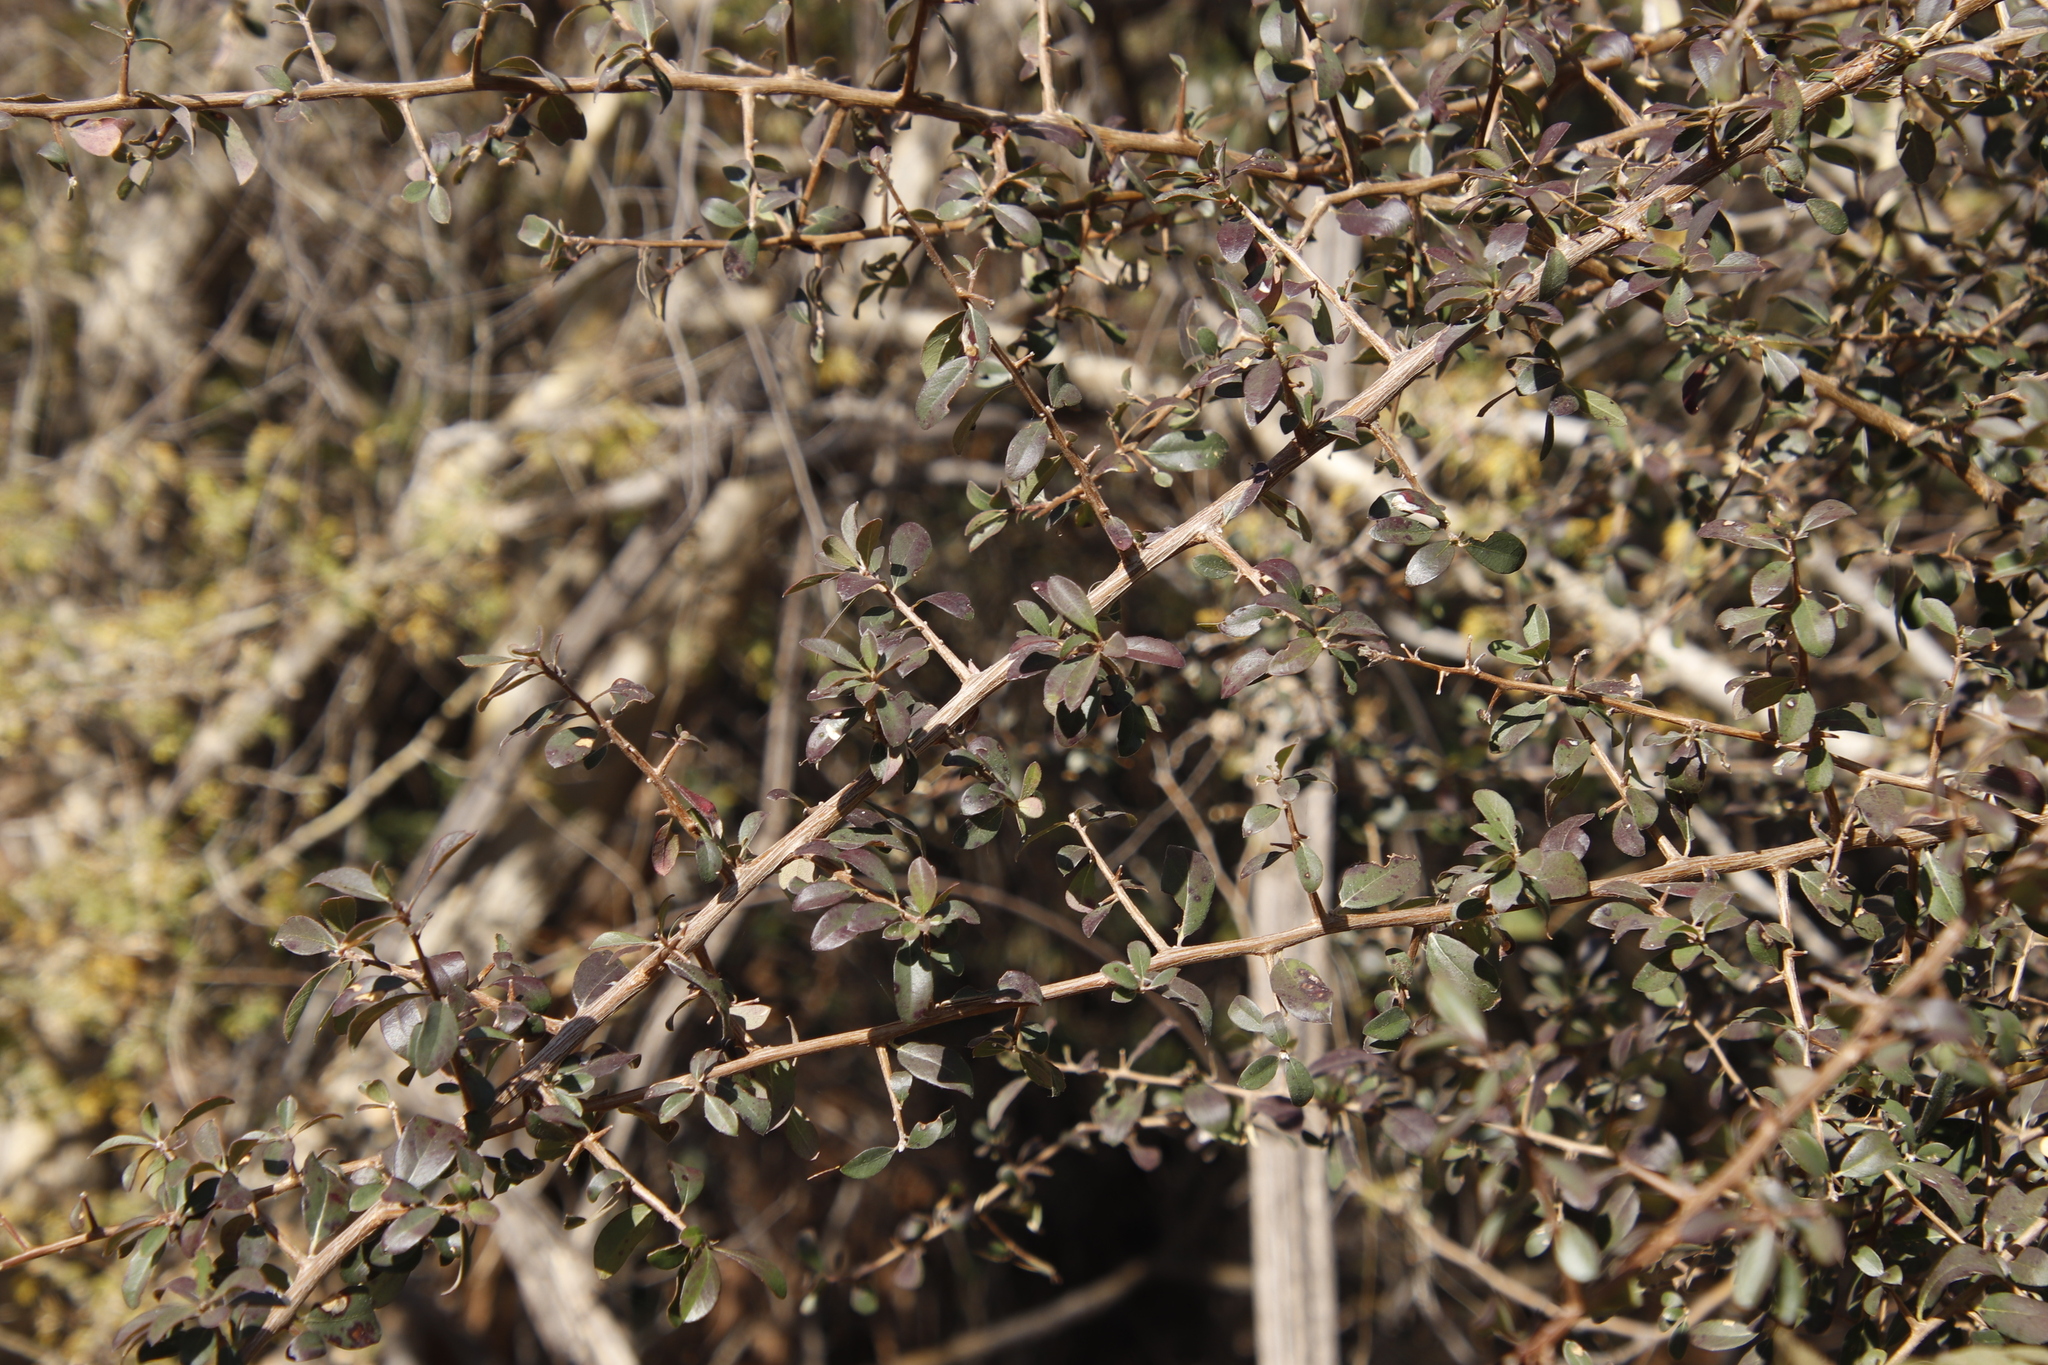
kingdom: Plantae
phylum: Tracheophyta
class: Magnoliopsida
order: Ericales
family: Ebenaceae
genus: Diospyros
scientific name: Diospyros lycioides
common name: Red star apple
